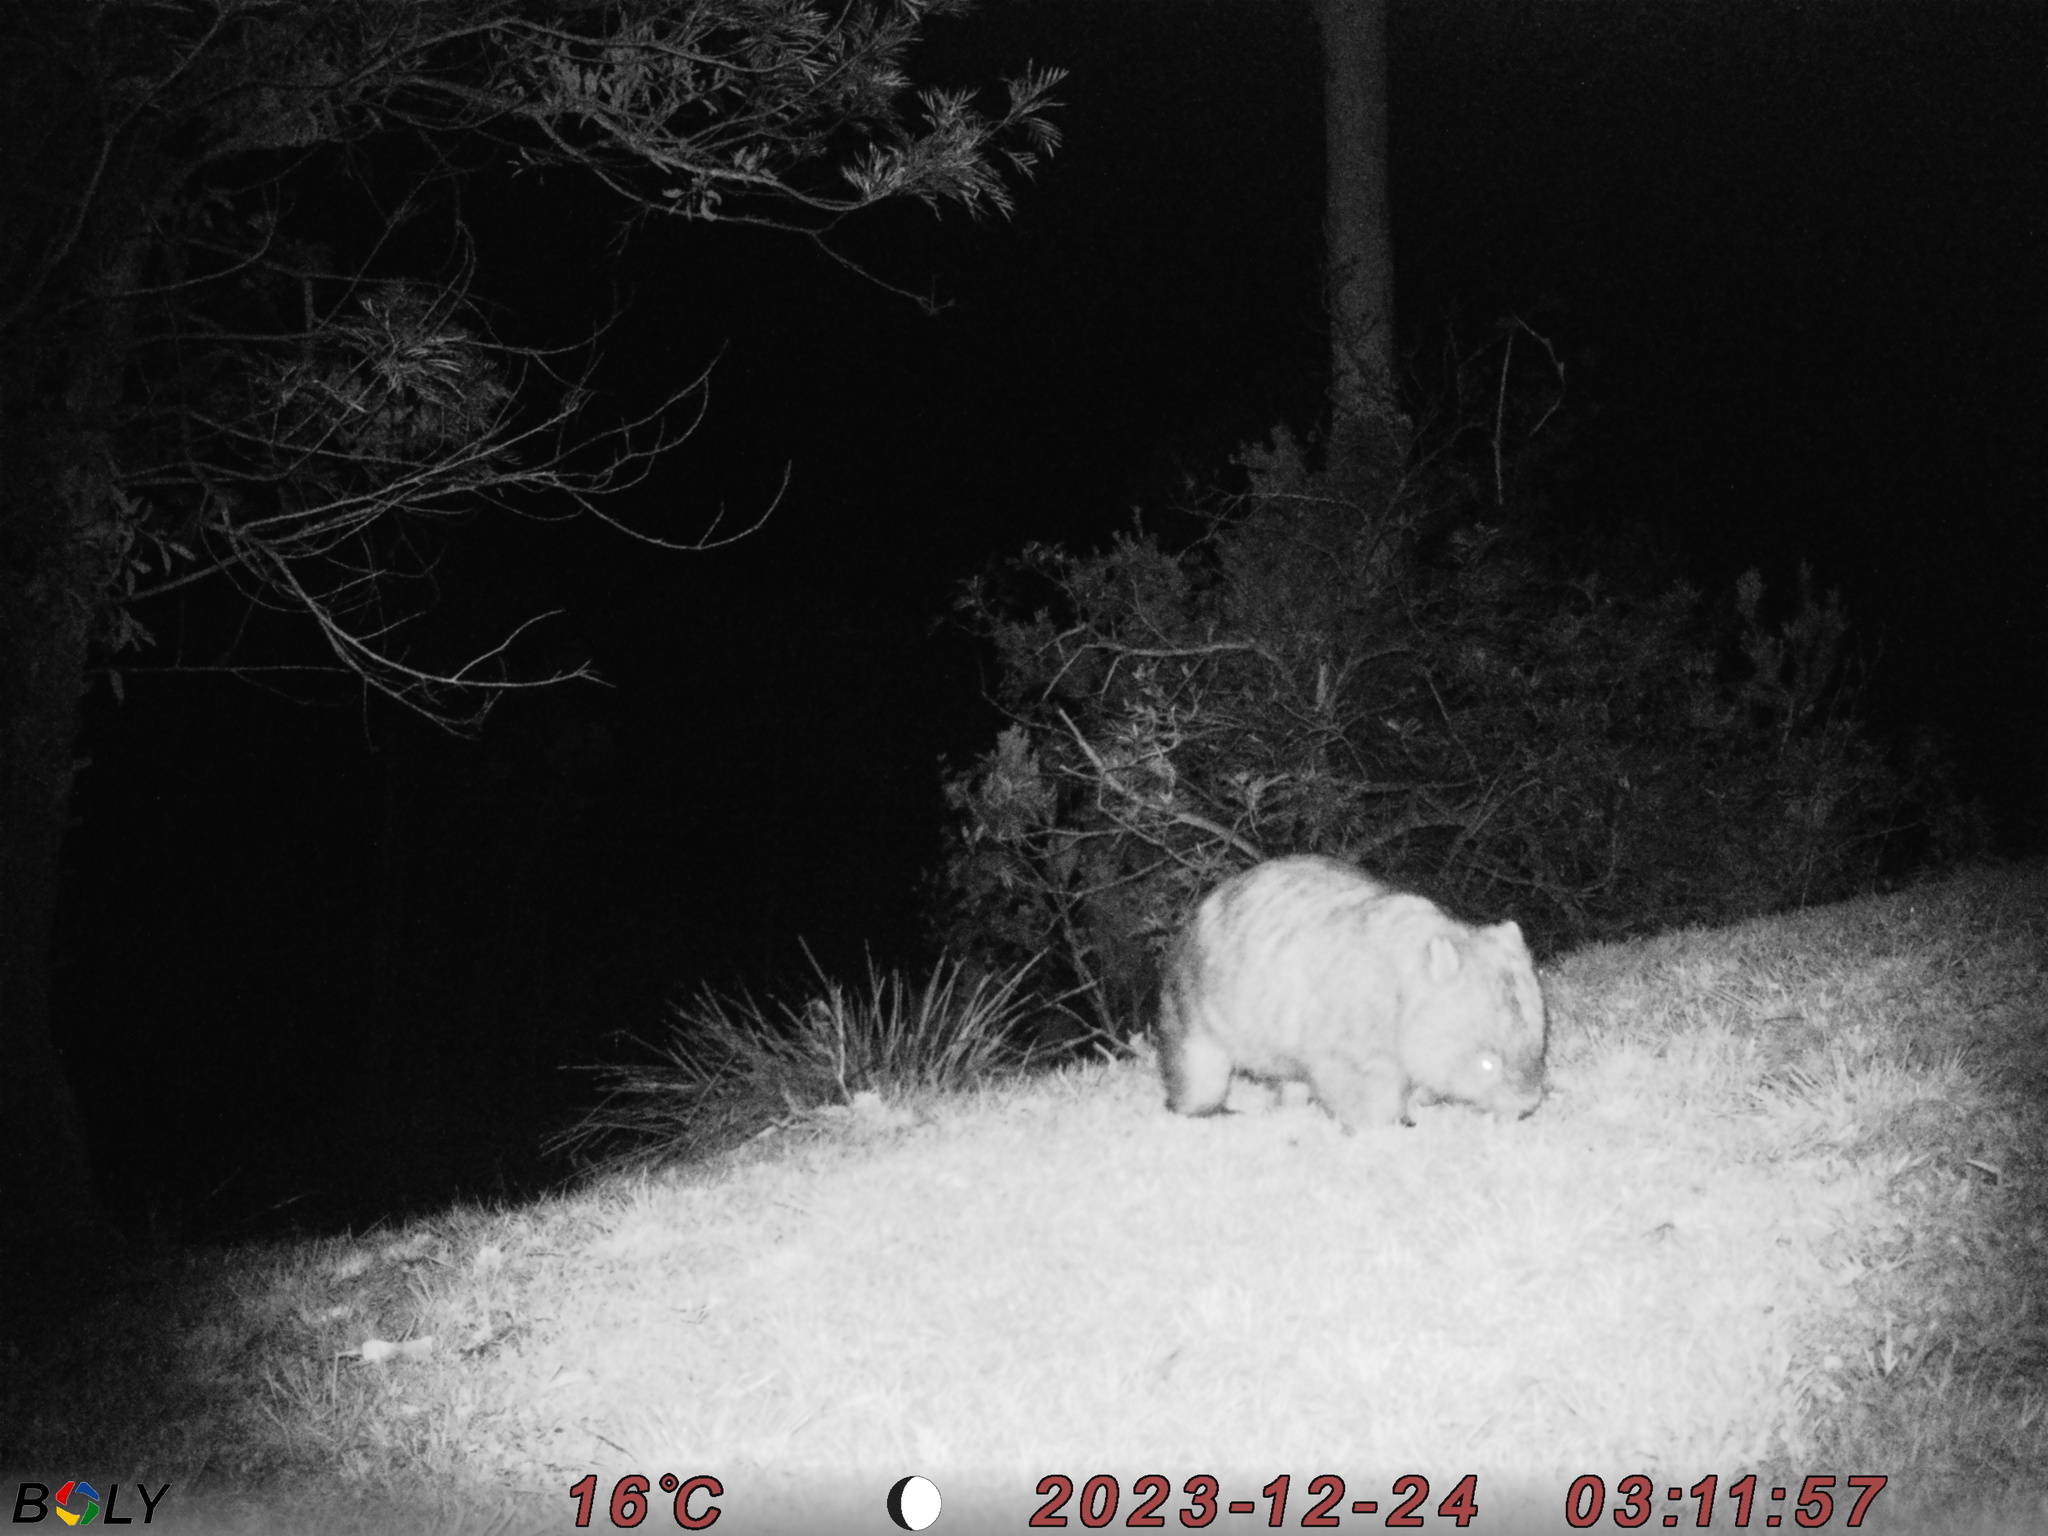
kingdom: Animalia
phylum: Chordata
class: Mammalia
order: Diprotodontia
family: Vombatidae
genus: Vombatus
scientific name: Vombatus ursinus
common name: Common wombat
